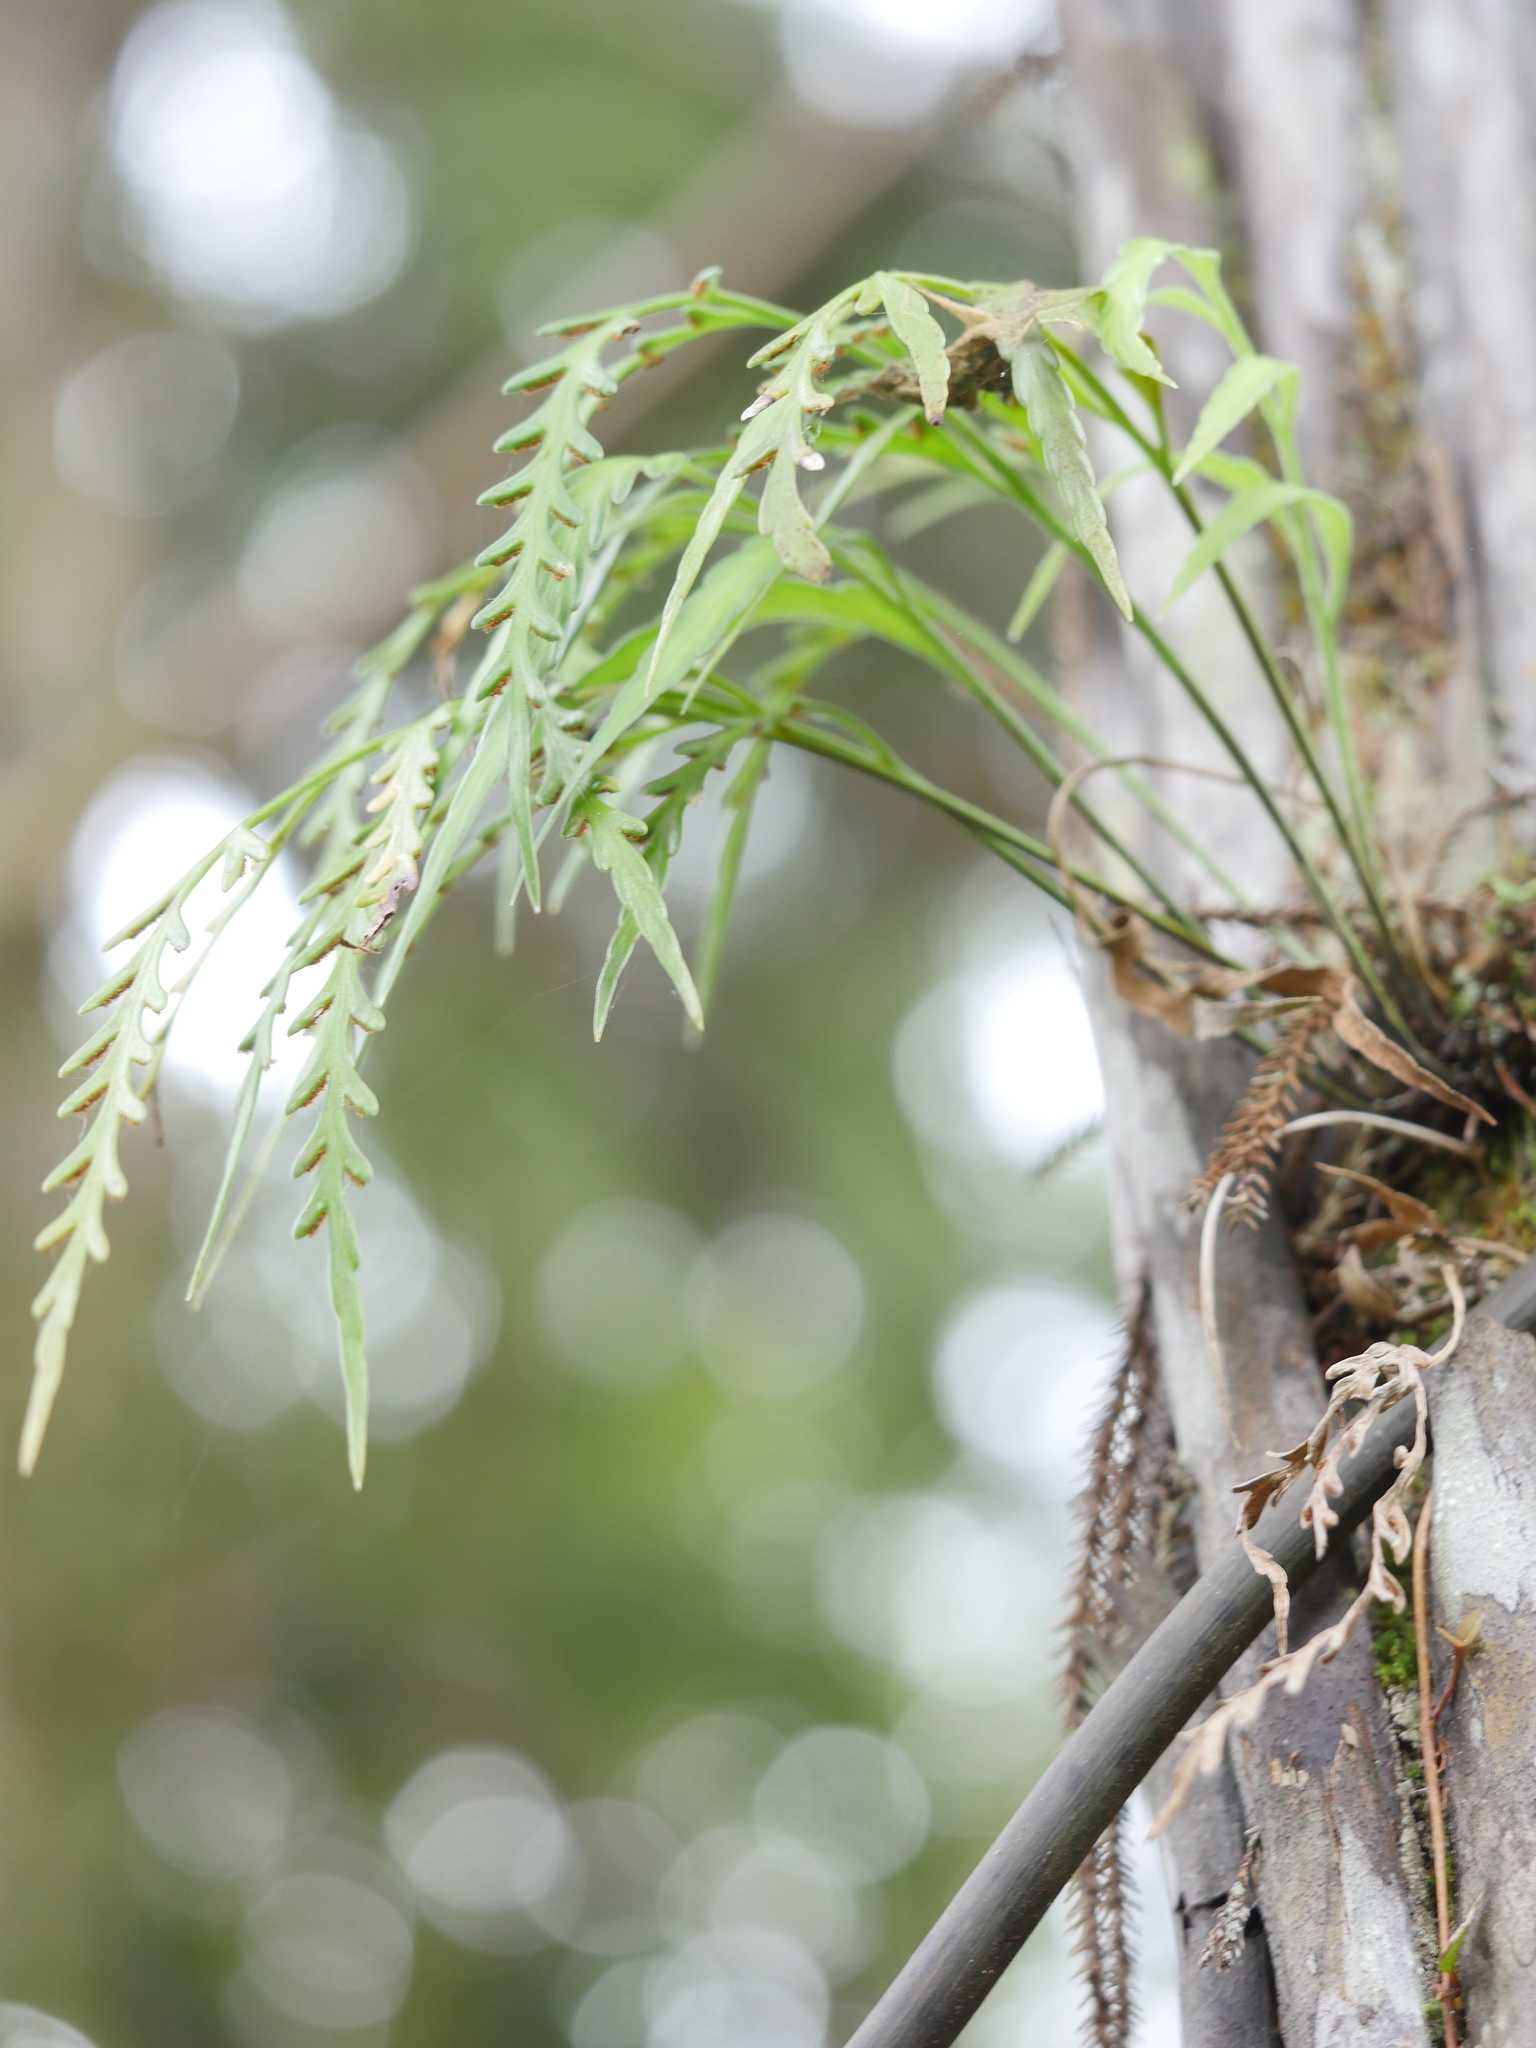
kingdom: Plantae
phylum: Tracheophyta
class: Polypodiopsida
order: Polypodiales
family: Aspleniaceae
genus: Asplenium
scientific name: Asplenium flaccidum
